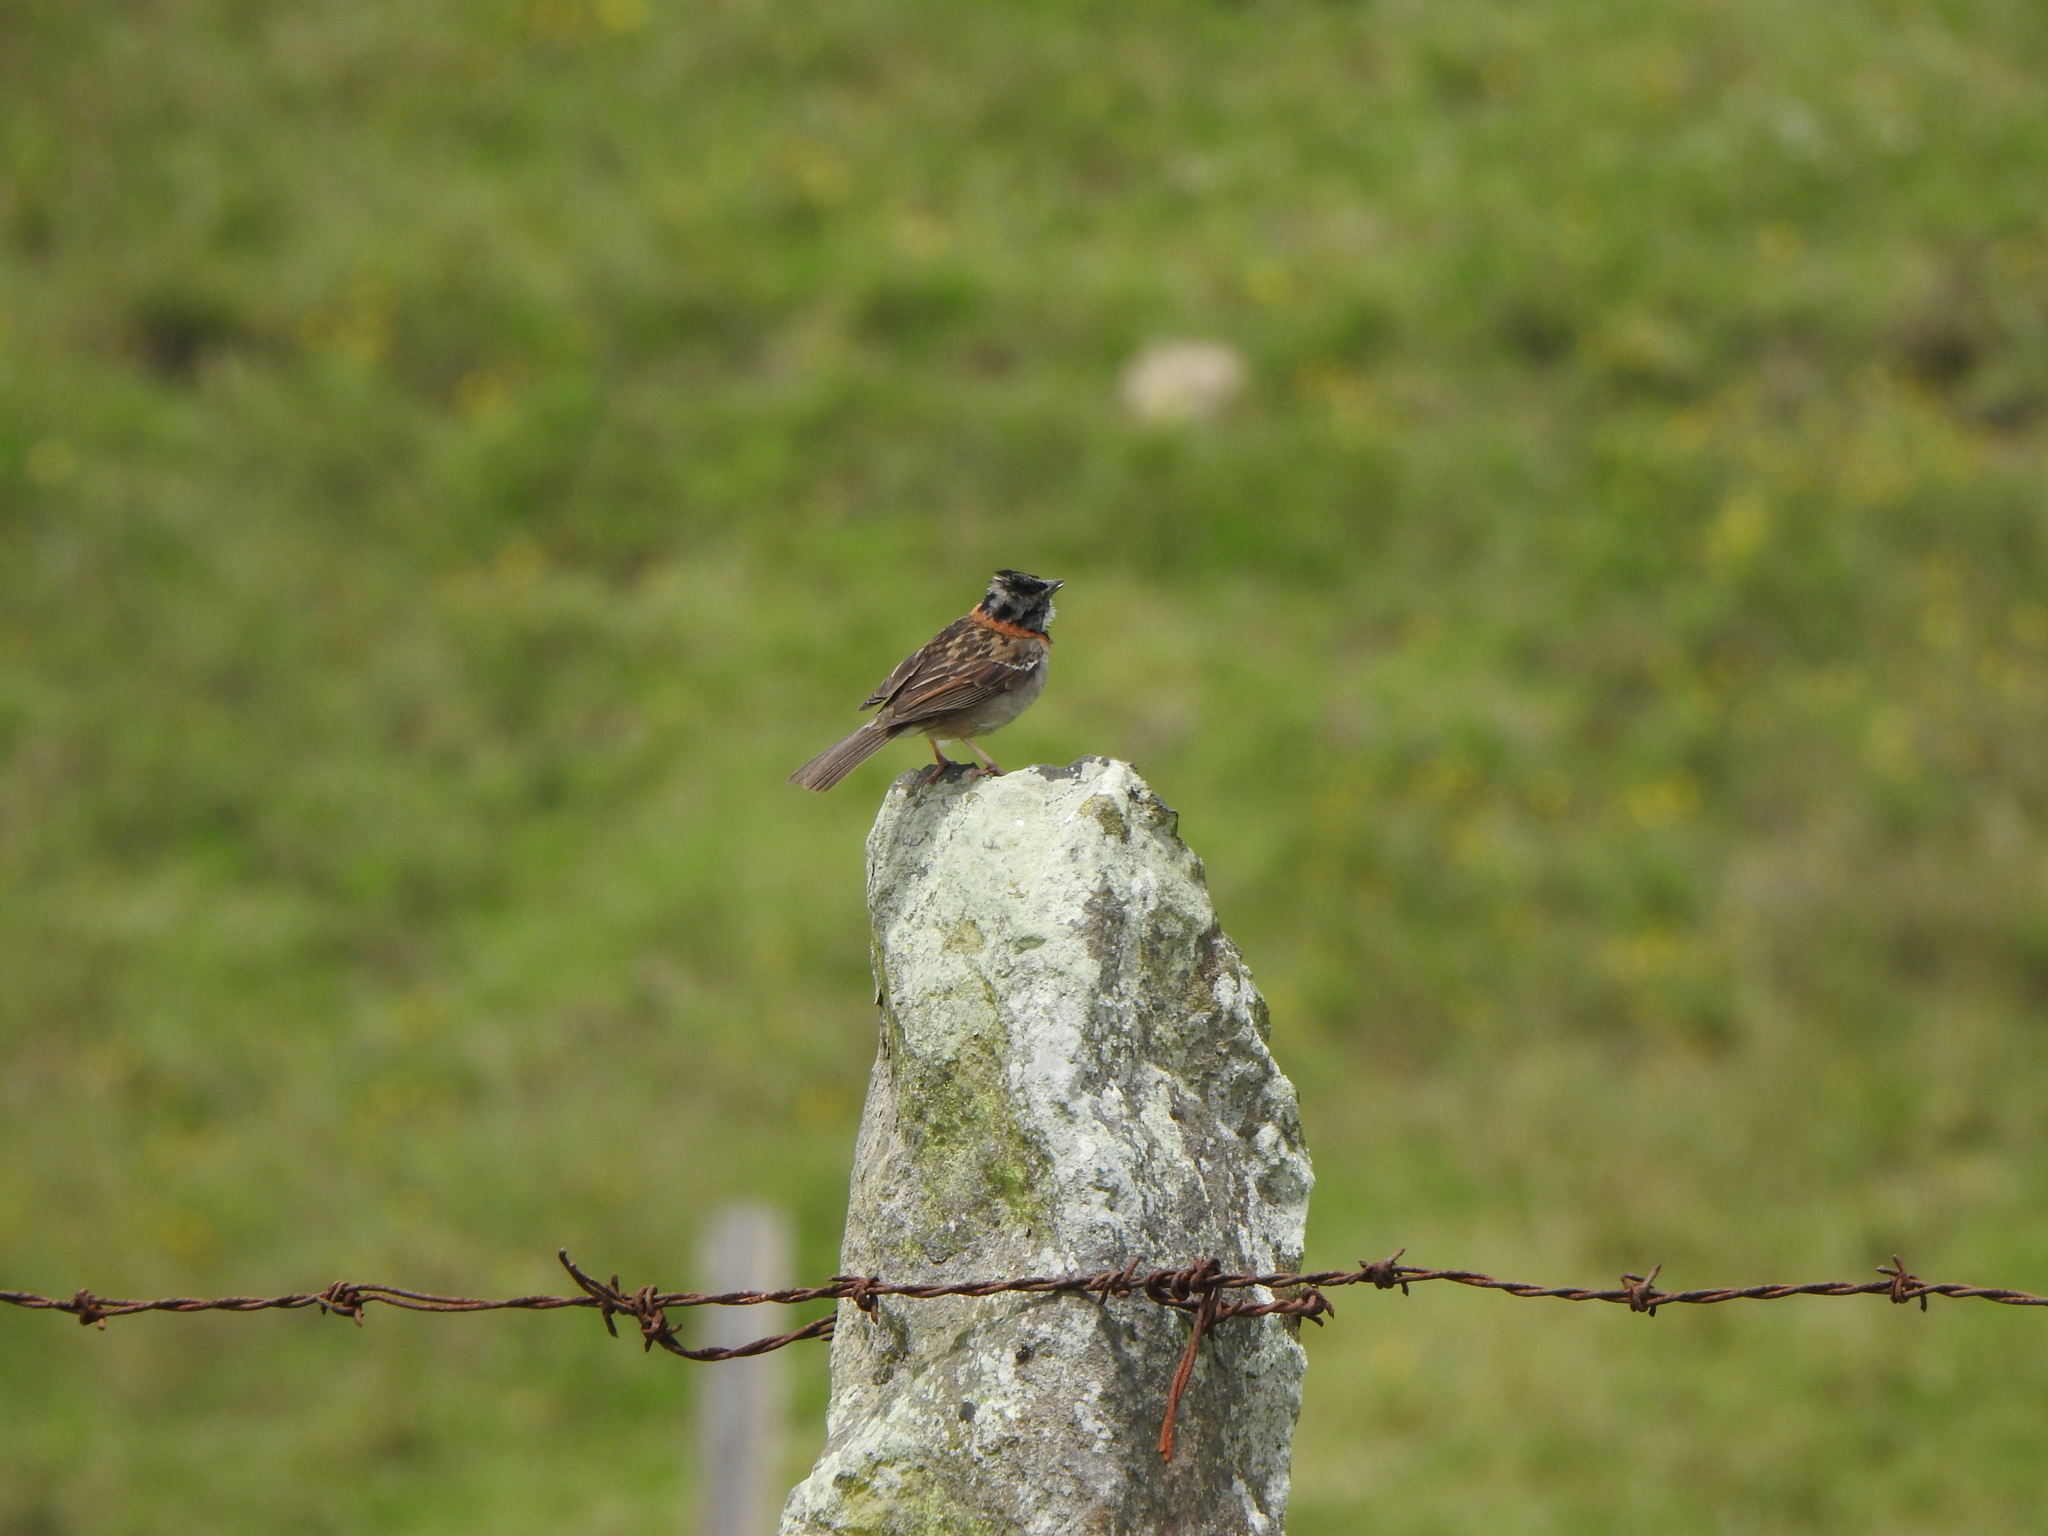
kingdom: Animalia
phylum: Chordata
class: Aves
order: Passeriformes
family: Passerellidae
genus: Zonotrichia
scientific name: Zonotrichia capensis
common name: Rufous-collared sparrow
